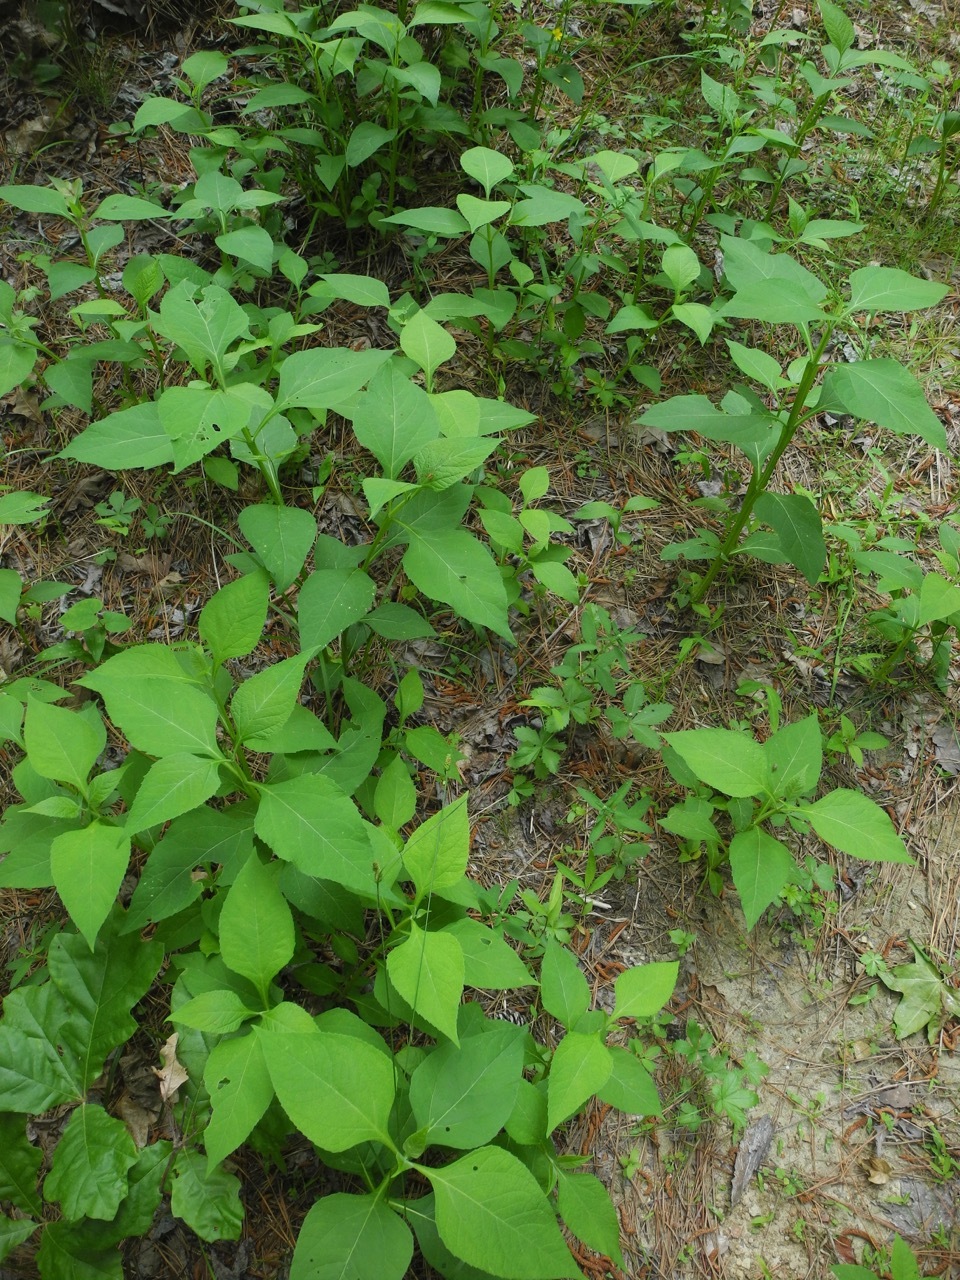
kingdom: Plantae
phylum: Tracheophyta
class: Magnoliopsida
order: Asterales
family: Asteraceae
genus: Verbesina
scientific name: Verbesina occidentalis
